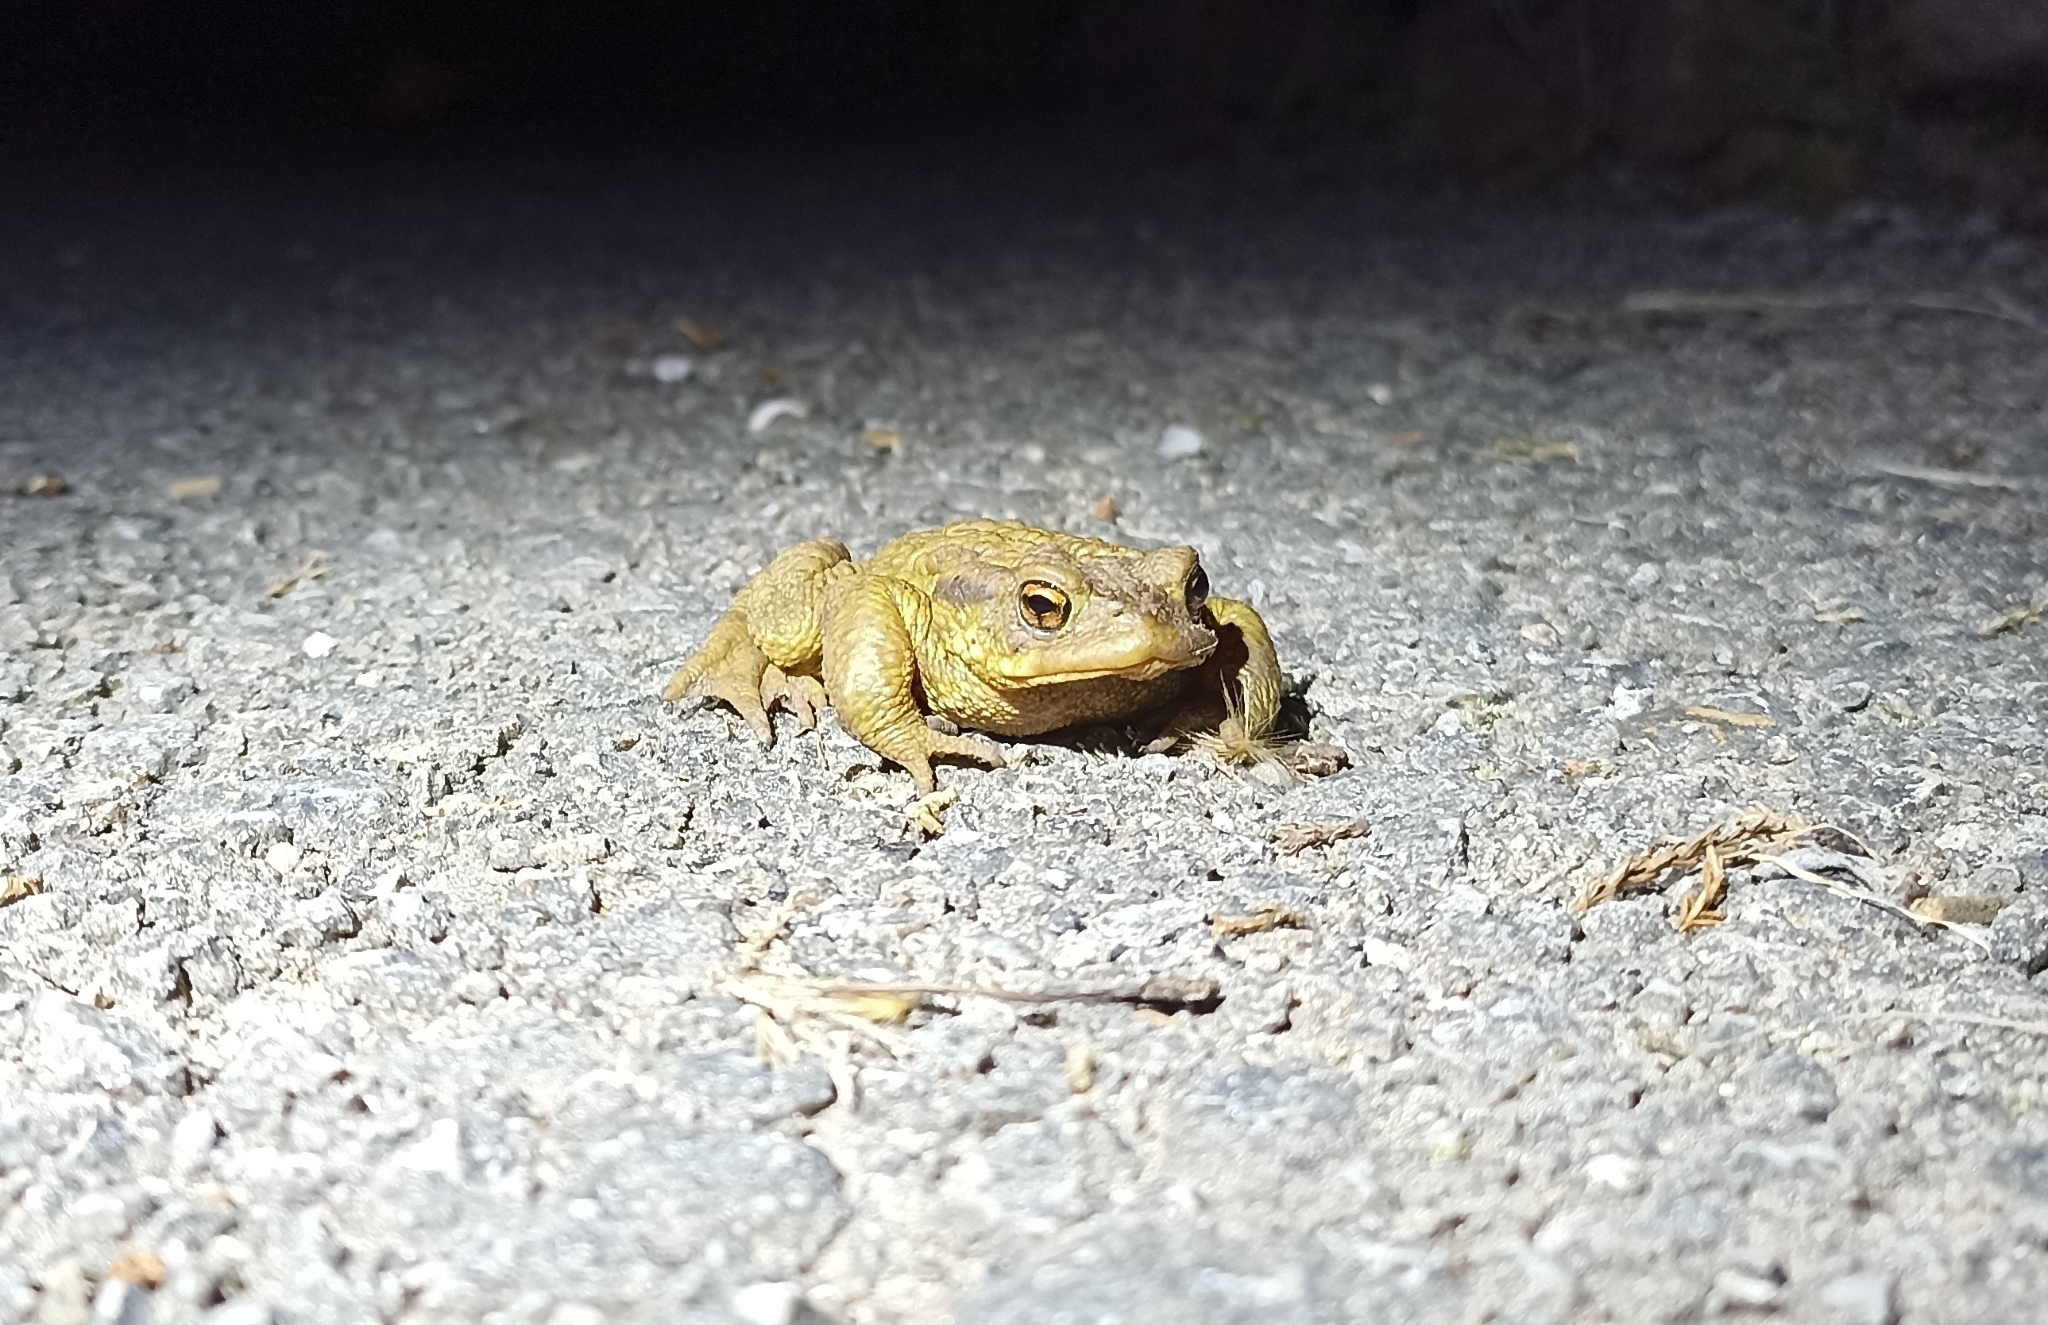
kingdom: Animalia
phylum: Chordata
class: Amphibia
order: Anura
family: Bufonidae
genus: Bufo
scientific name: Bufo spinosus
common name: Western common toad
